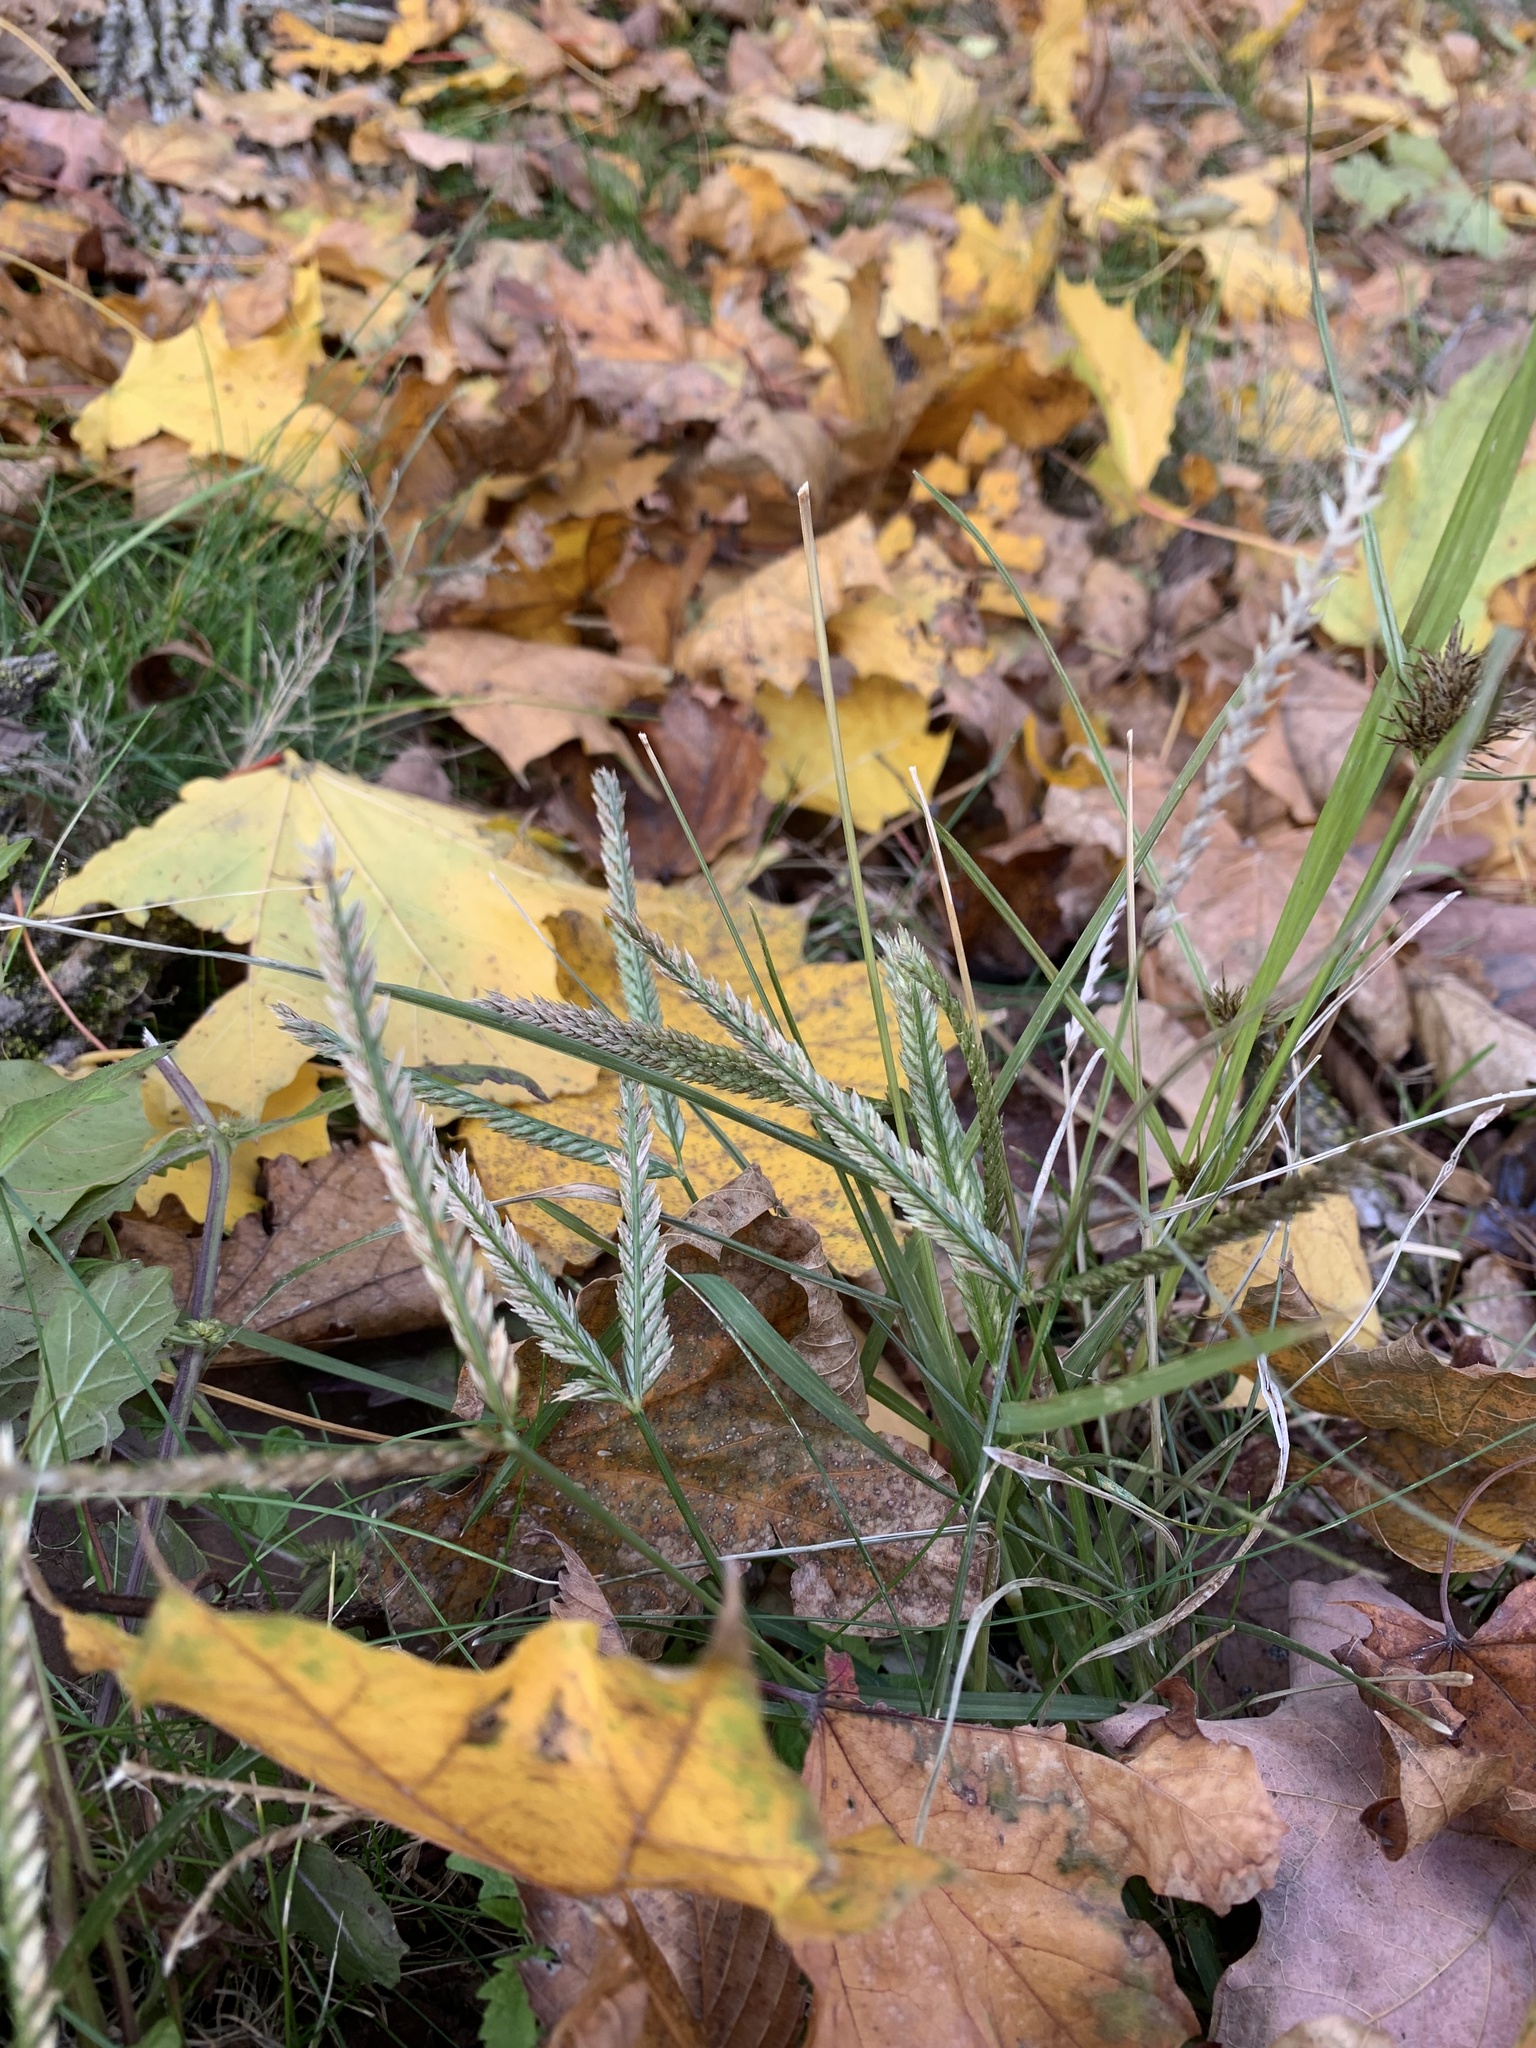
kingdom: Plantae
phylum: Tracheophyta
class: Liliopsida
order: Poales
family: Poaceae
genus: Eleusine
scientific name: Eleusine indica
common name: Yard-grass
